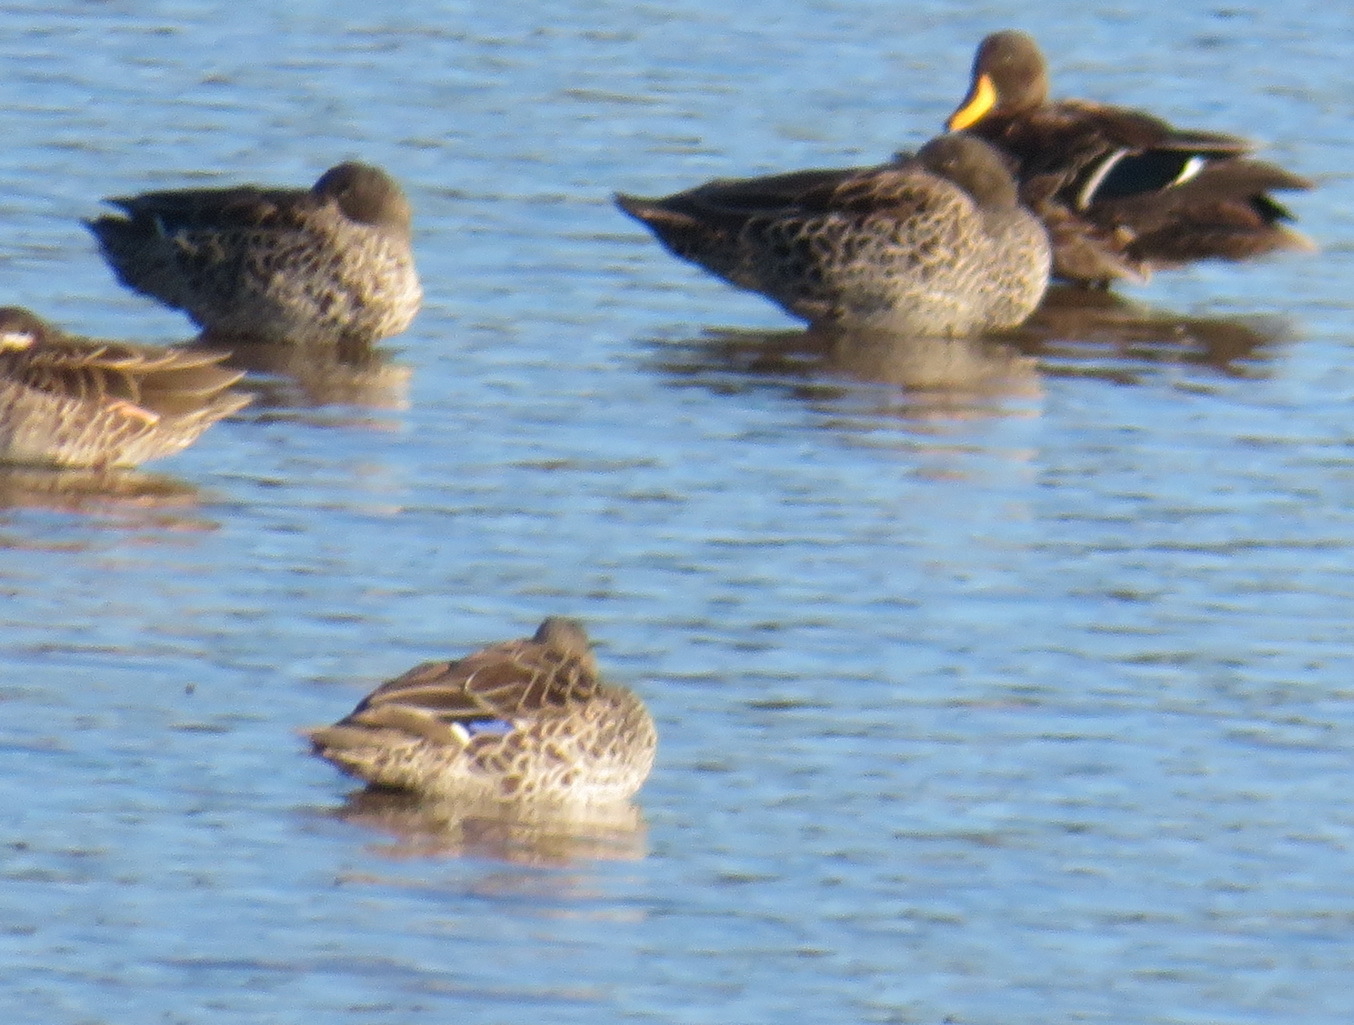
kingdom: Animalia
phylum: Chordata
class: Aves
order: Anseriformes
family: Anatidae
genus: Anas
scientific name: Anas undulata
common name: Yellow-billed duck
